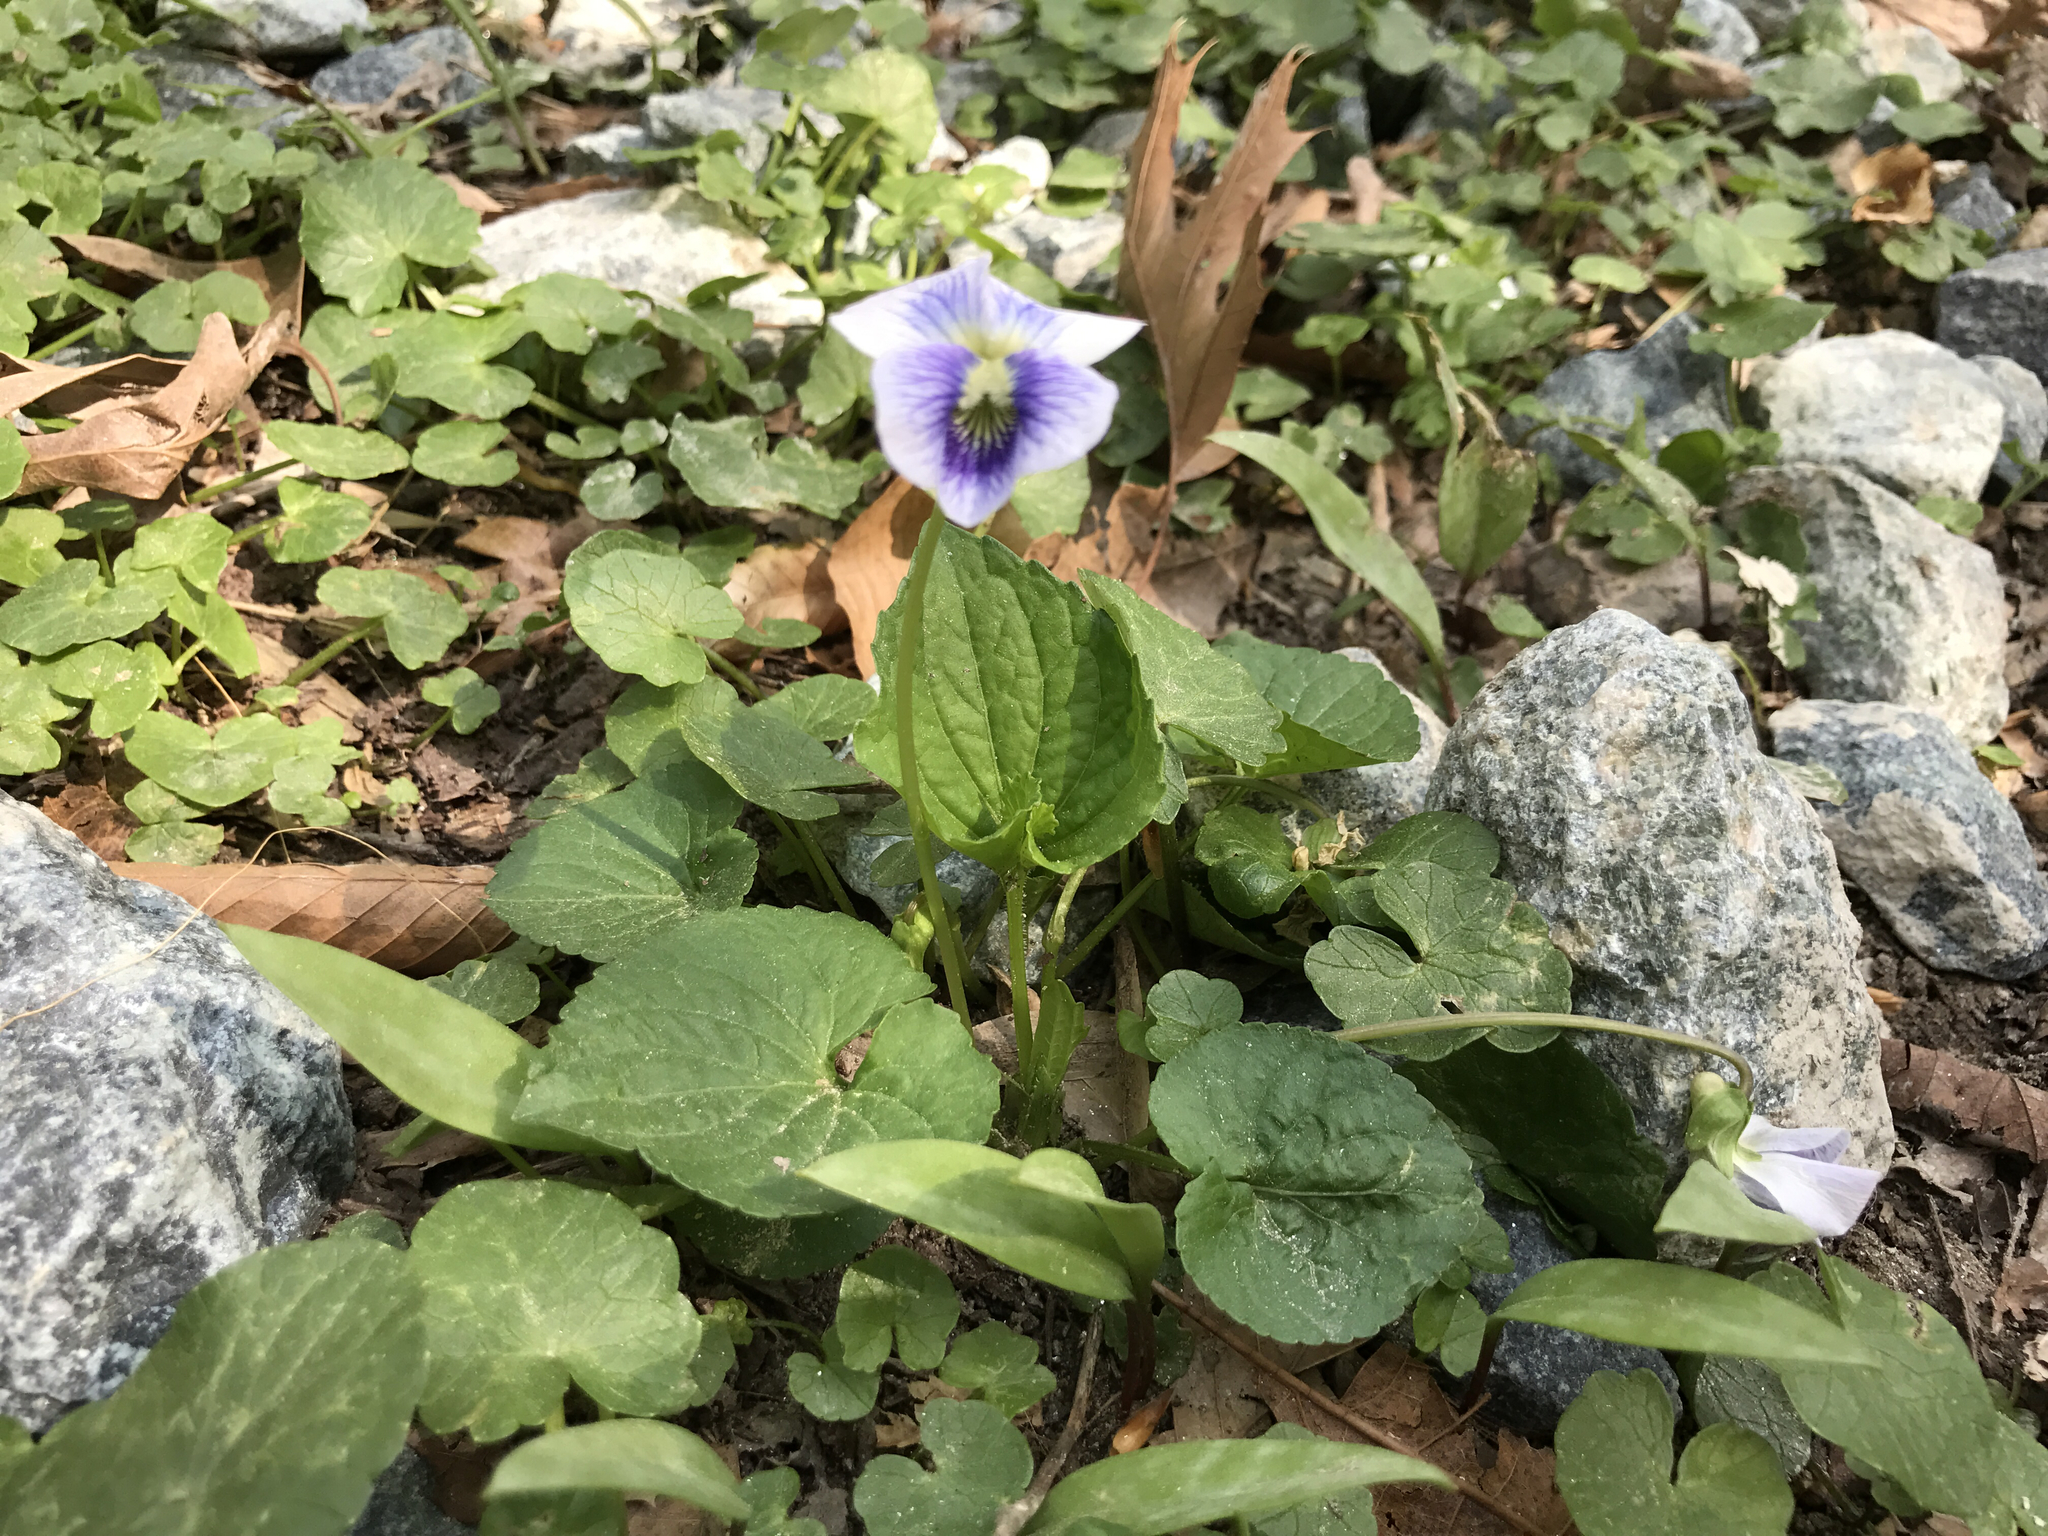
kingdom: Plantae
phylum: Tracheophyta
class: Magnoliopsida
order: Malpighiales
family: Violaceae
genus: Viola
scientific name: Viola sororia
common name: Dooryard violet
